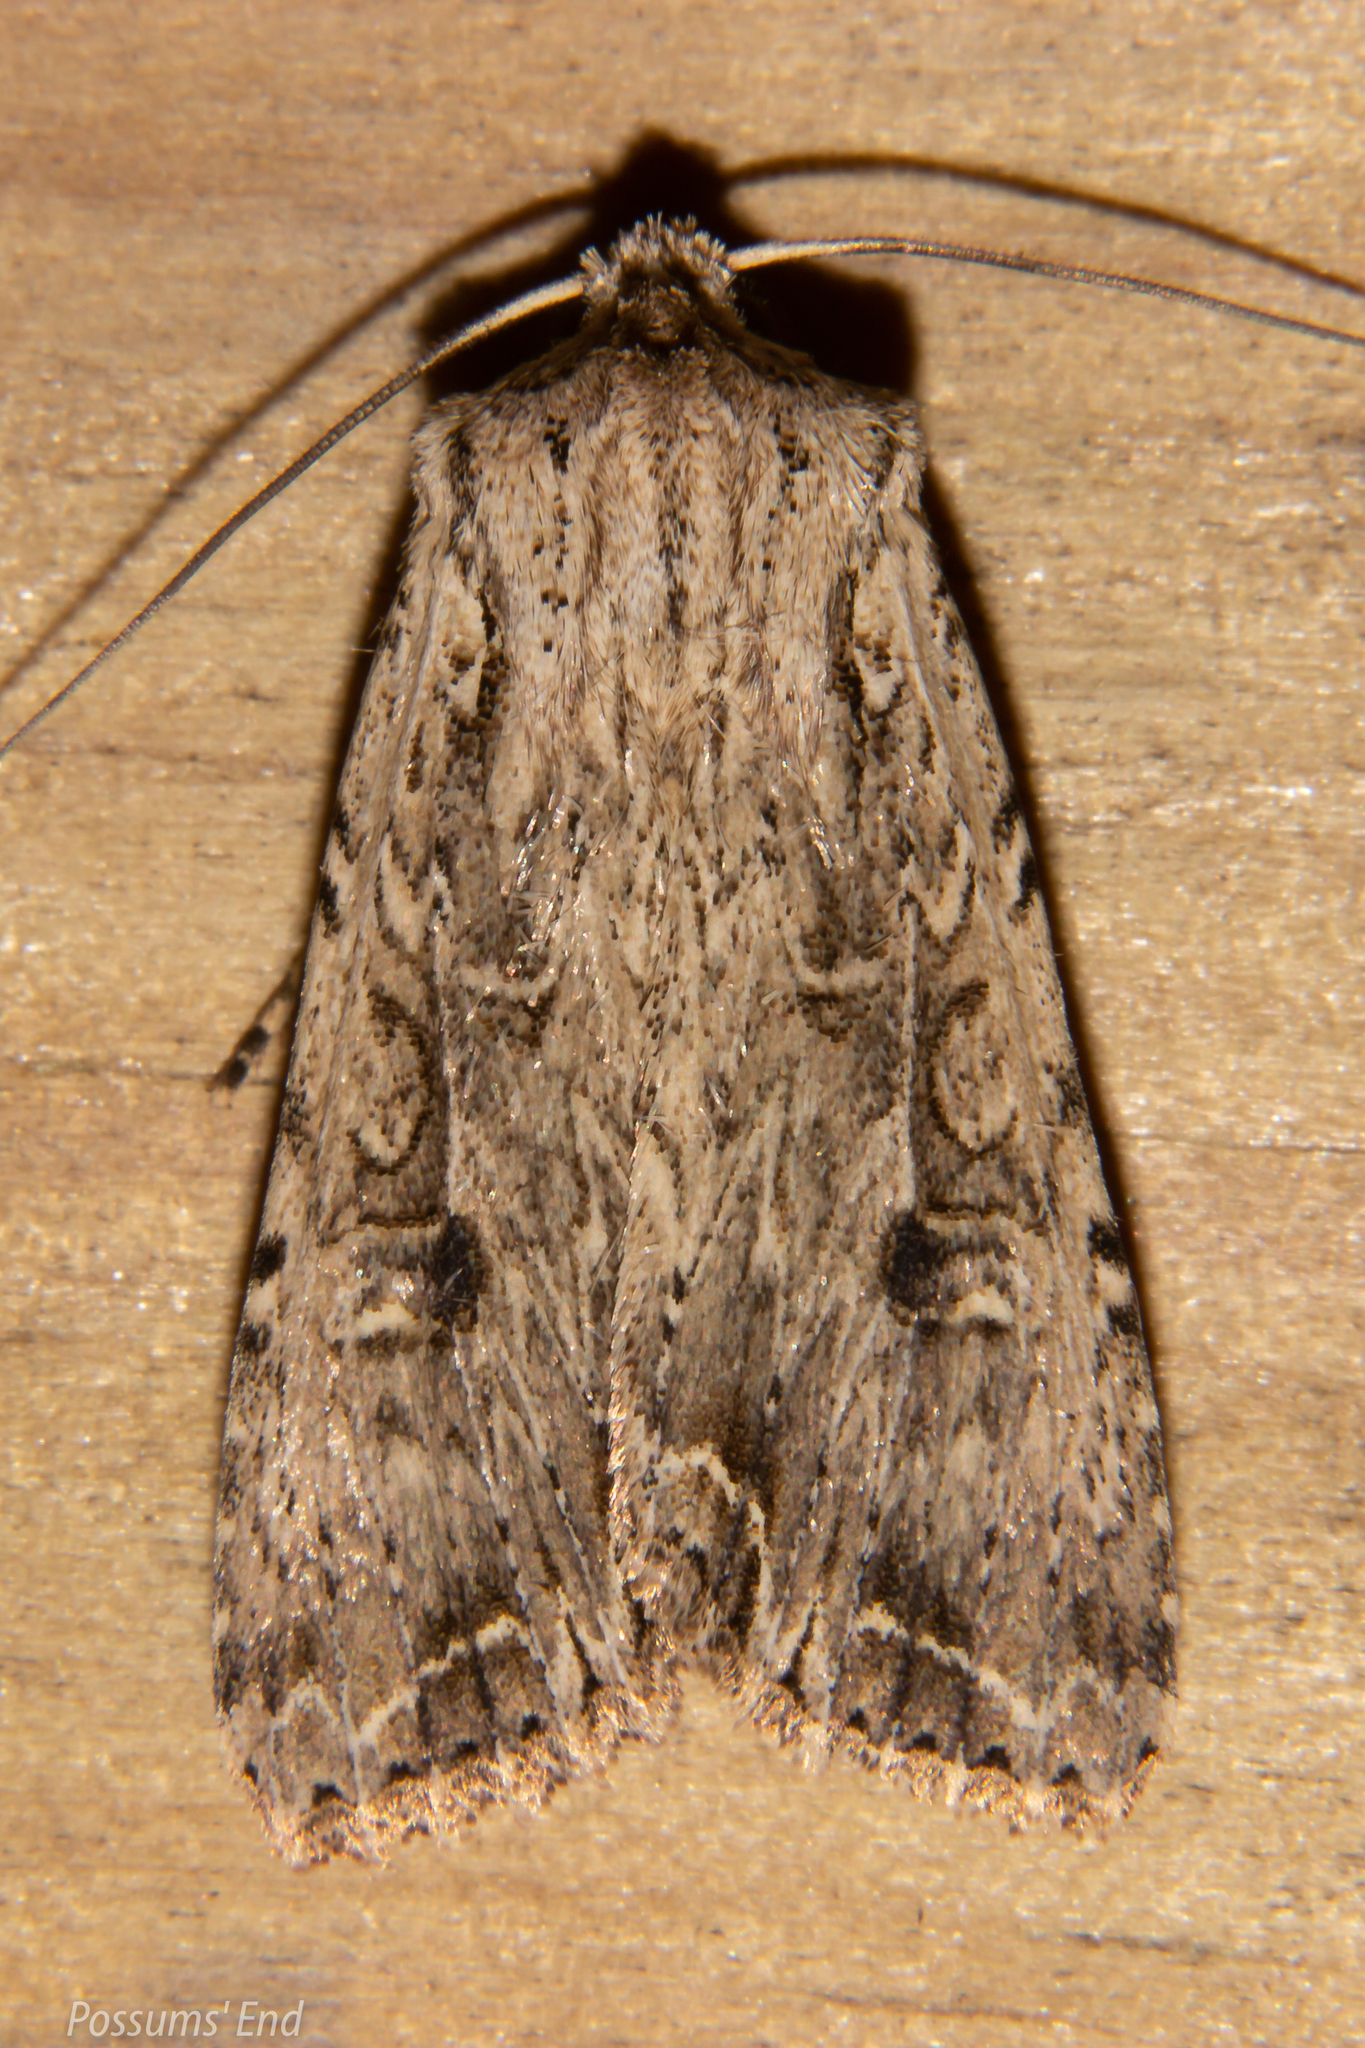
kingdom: Animalia
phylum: Arthropoda
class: Insecta
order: Lepidoptera
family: Noctuidae
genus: Ichneutica
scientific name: Ichneutica lignana
